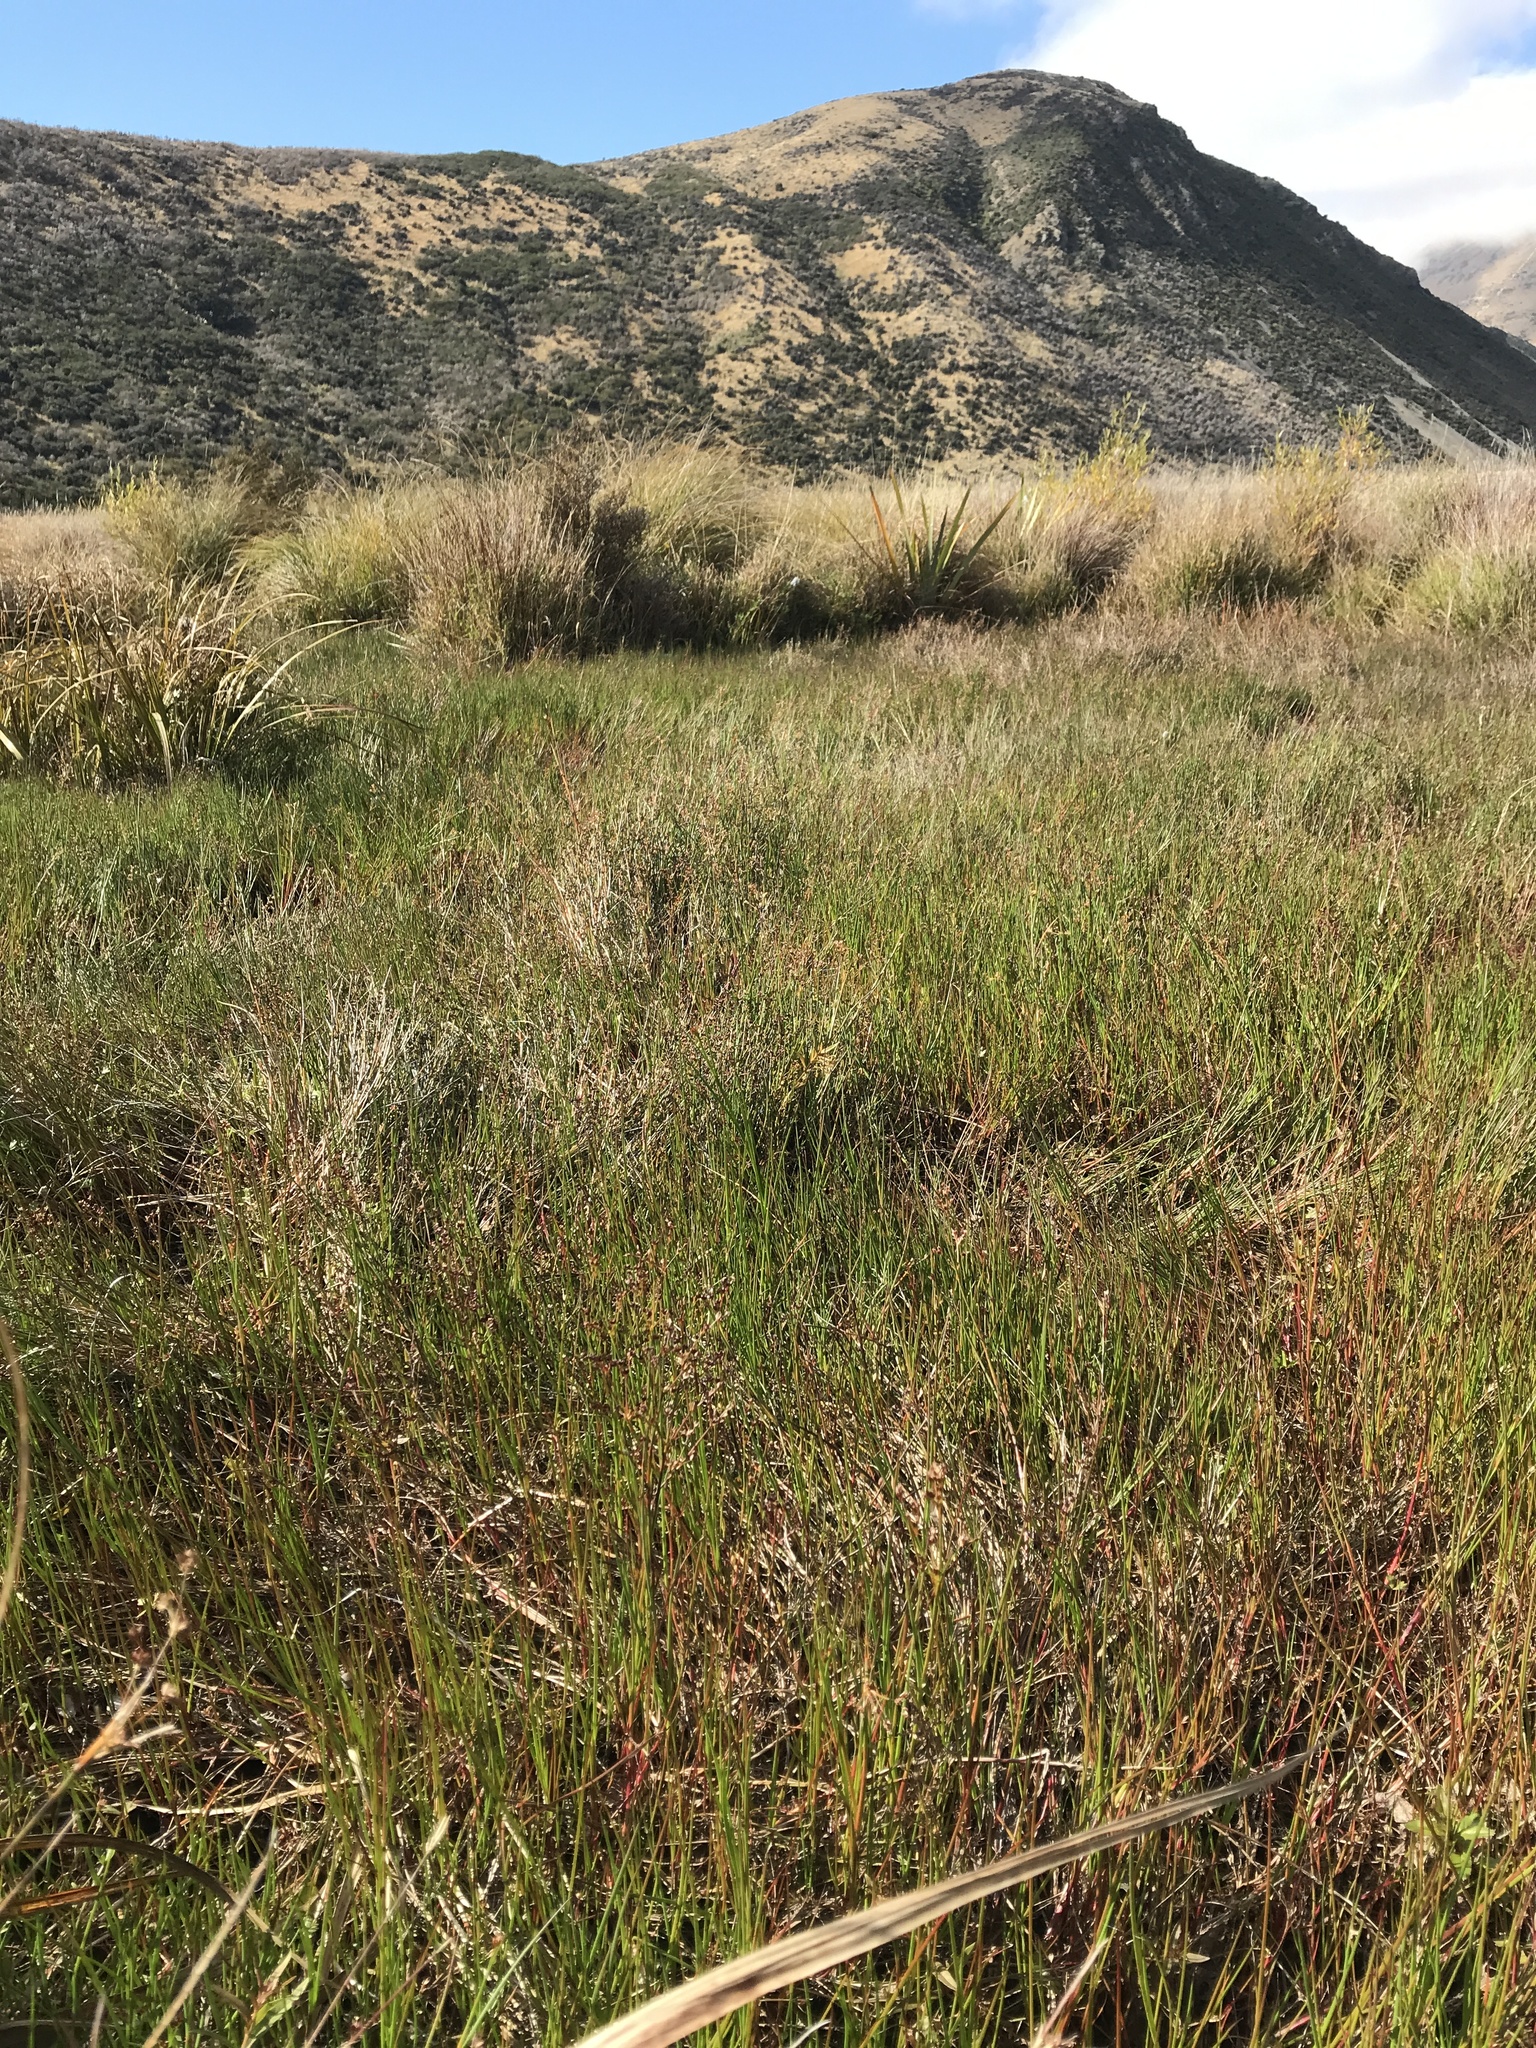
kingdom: Plantae
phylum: Tracheophyta
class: Liliopsida
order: Poales
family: Juncaceae
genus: Juncus
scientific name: Juncus articulatus
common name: Jointed rush
